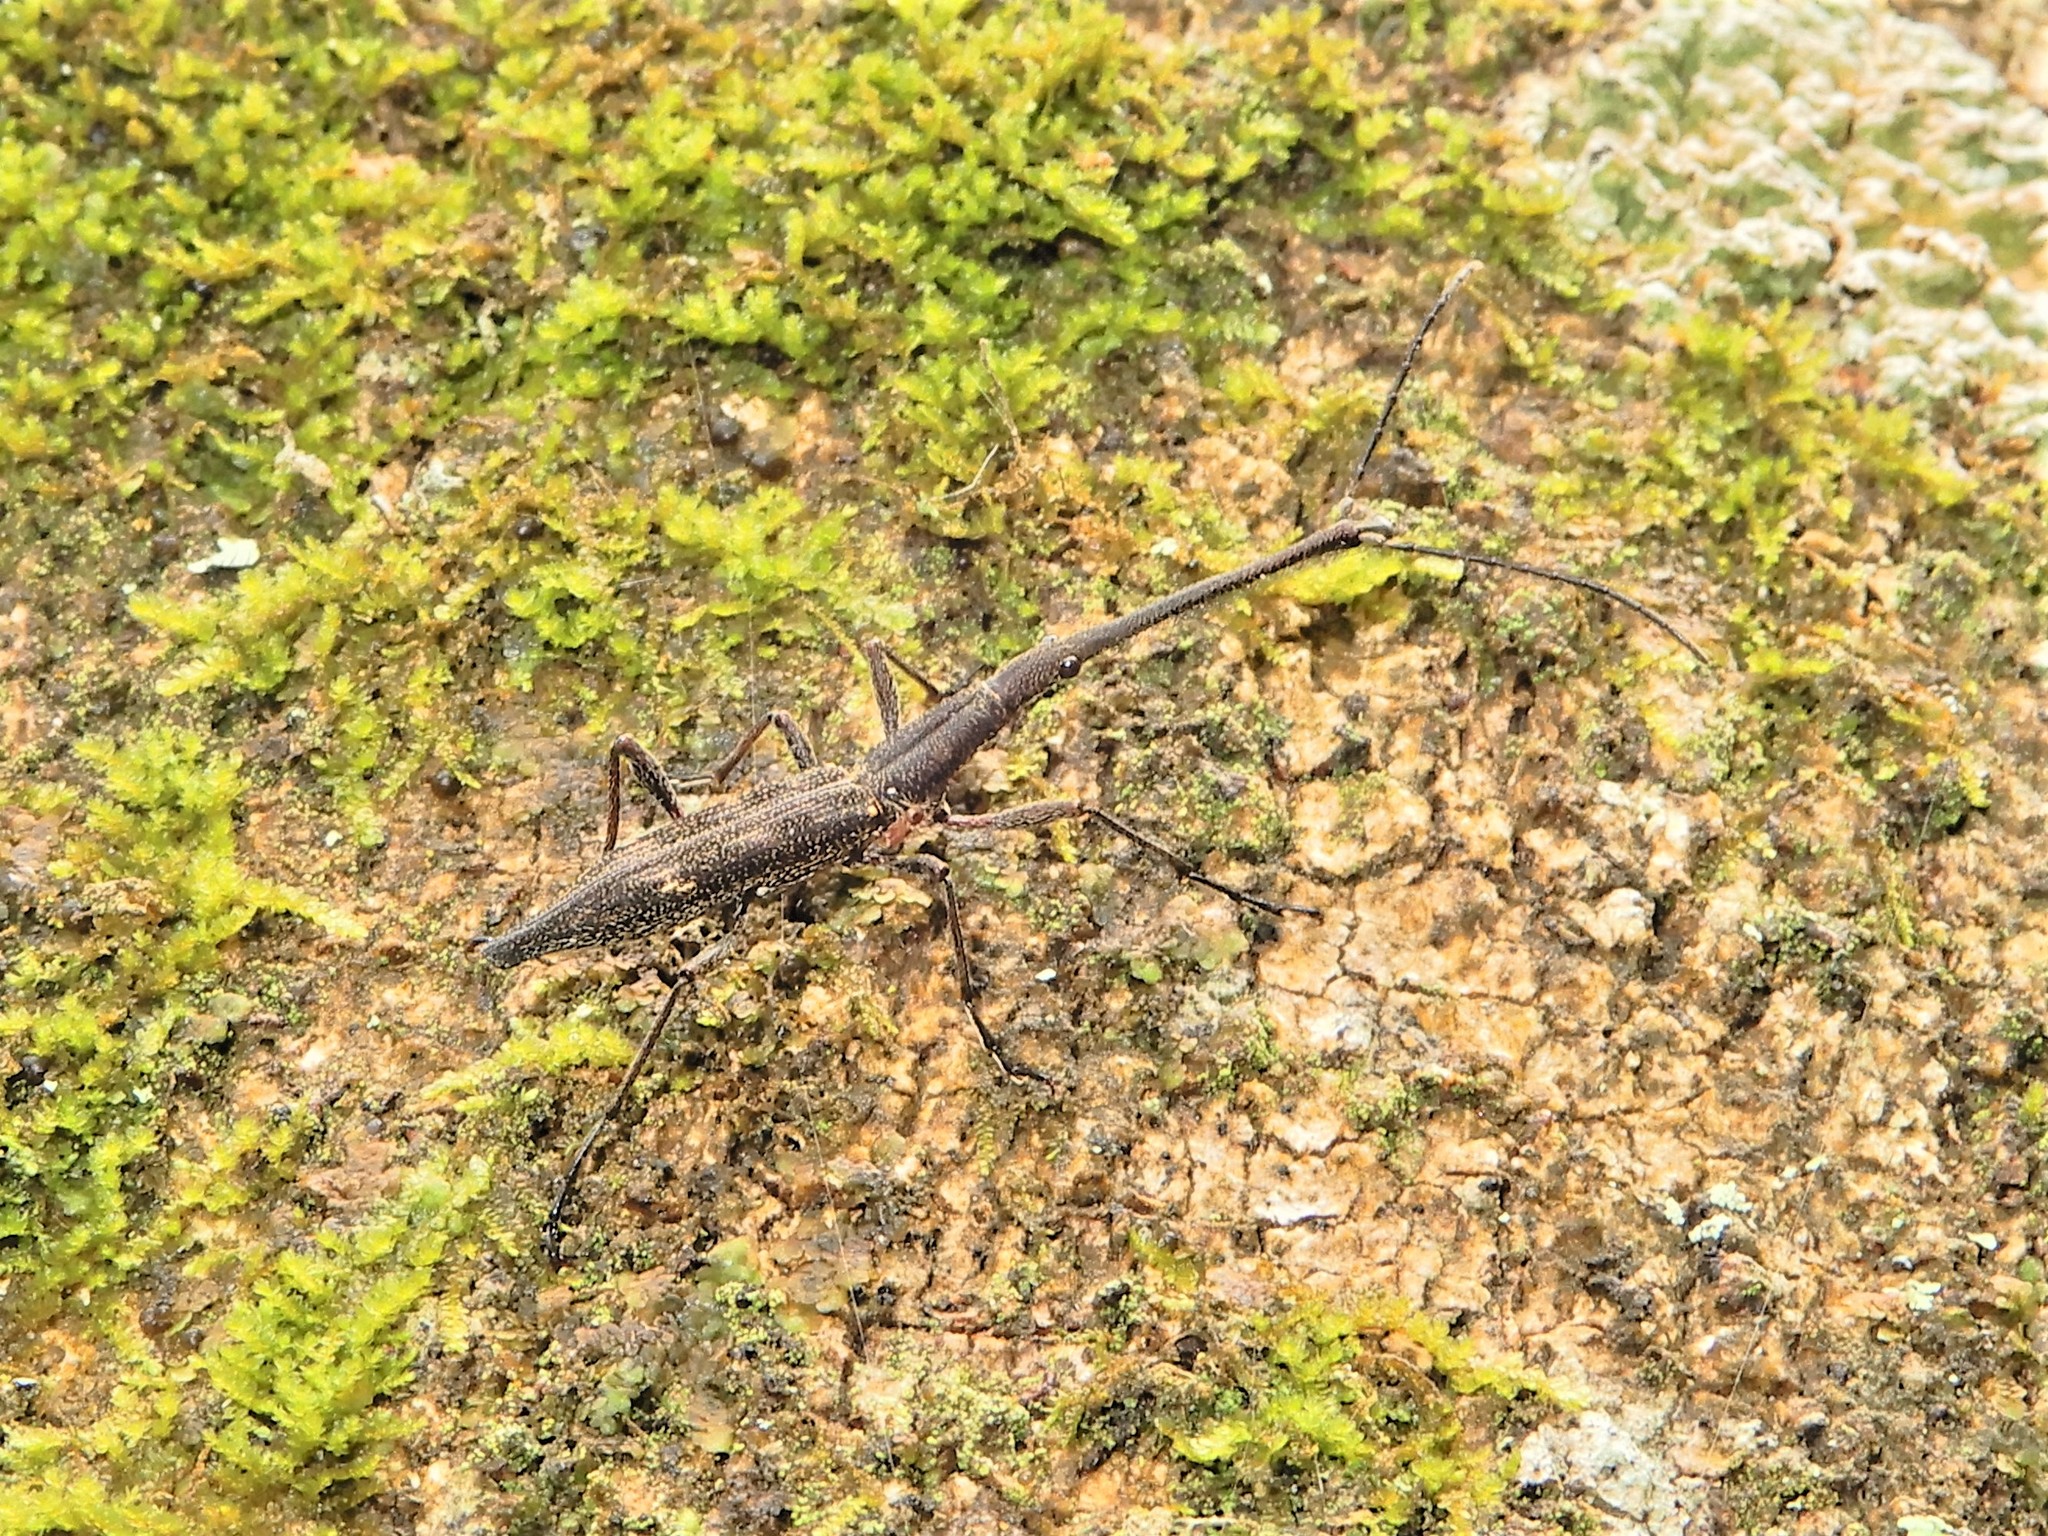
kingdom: Animalia
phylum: Arthropoda
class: Insecta
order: Coleoptera
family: Brentidae
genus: Lasiorhynchus
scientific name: Lasiorhynchus barbicornis
